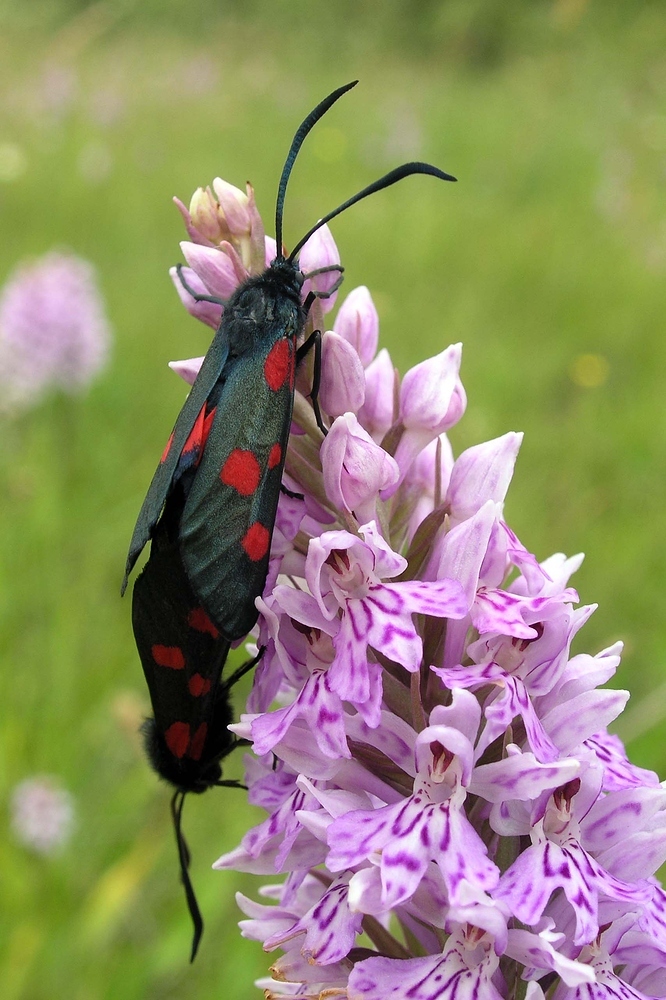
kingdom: Animalia
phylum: Arthropoda
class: Insecta
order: Lepidoptera
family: Zygaenidae
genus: Zygaena
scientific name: Zygaena lonicerae
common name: Narrow-bordered five-spot burnet
